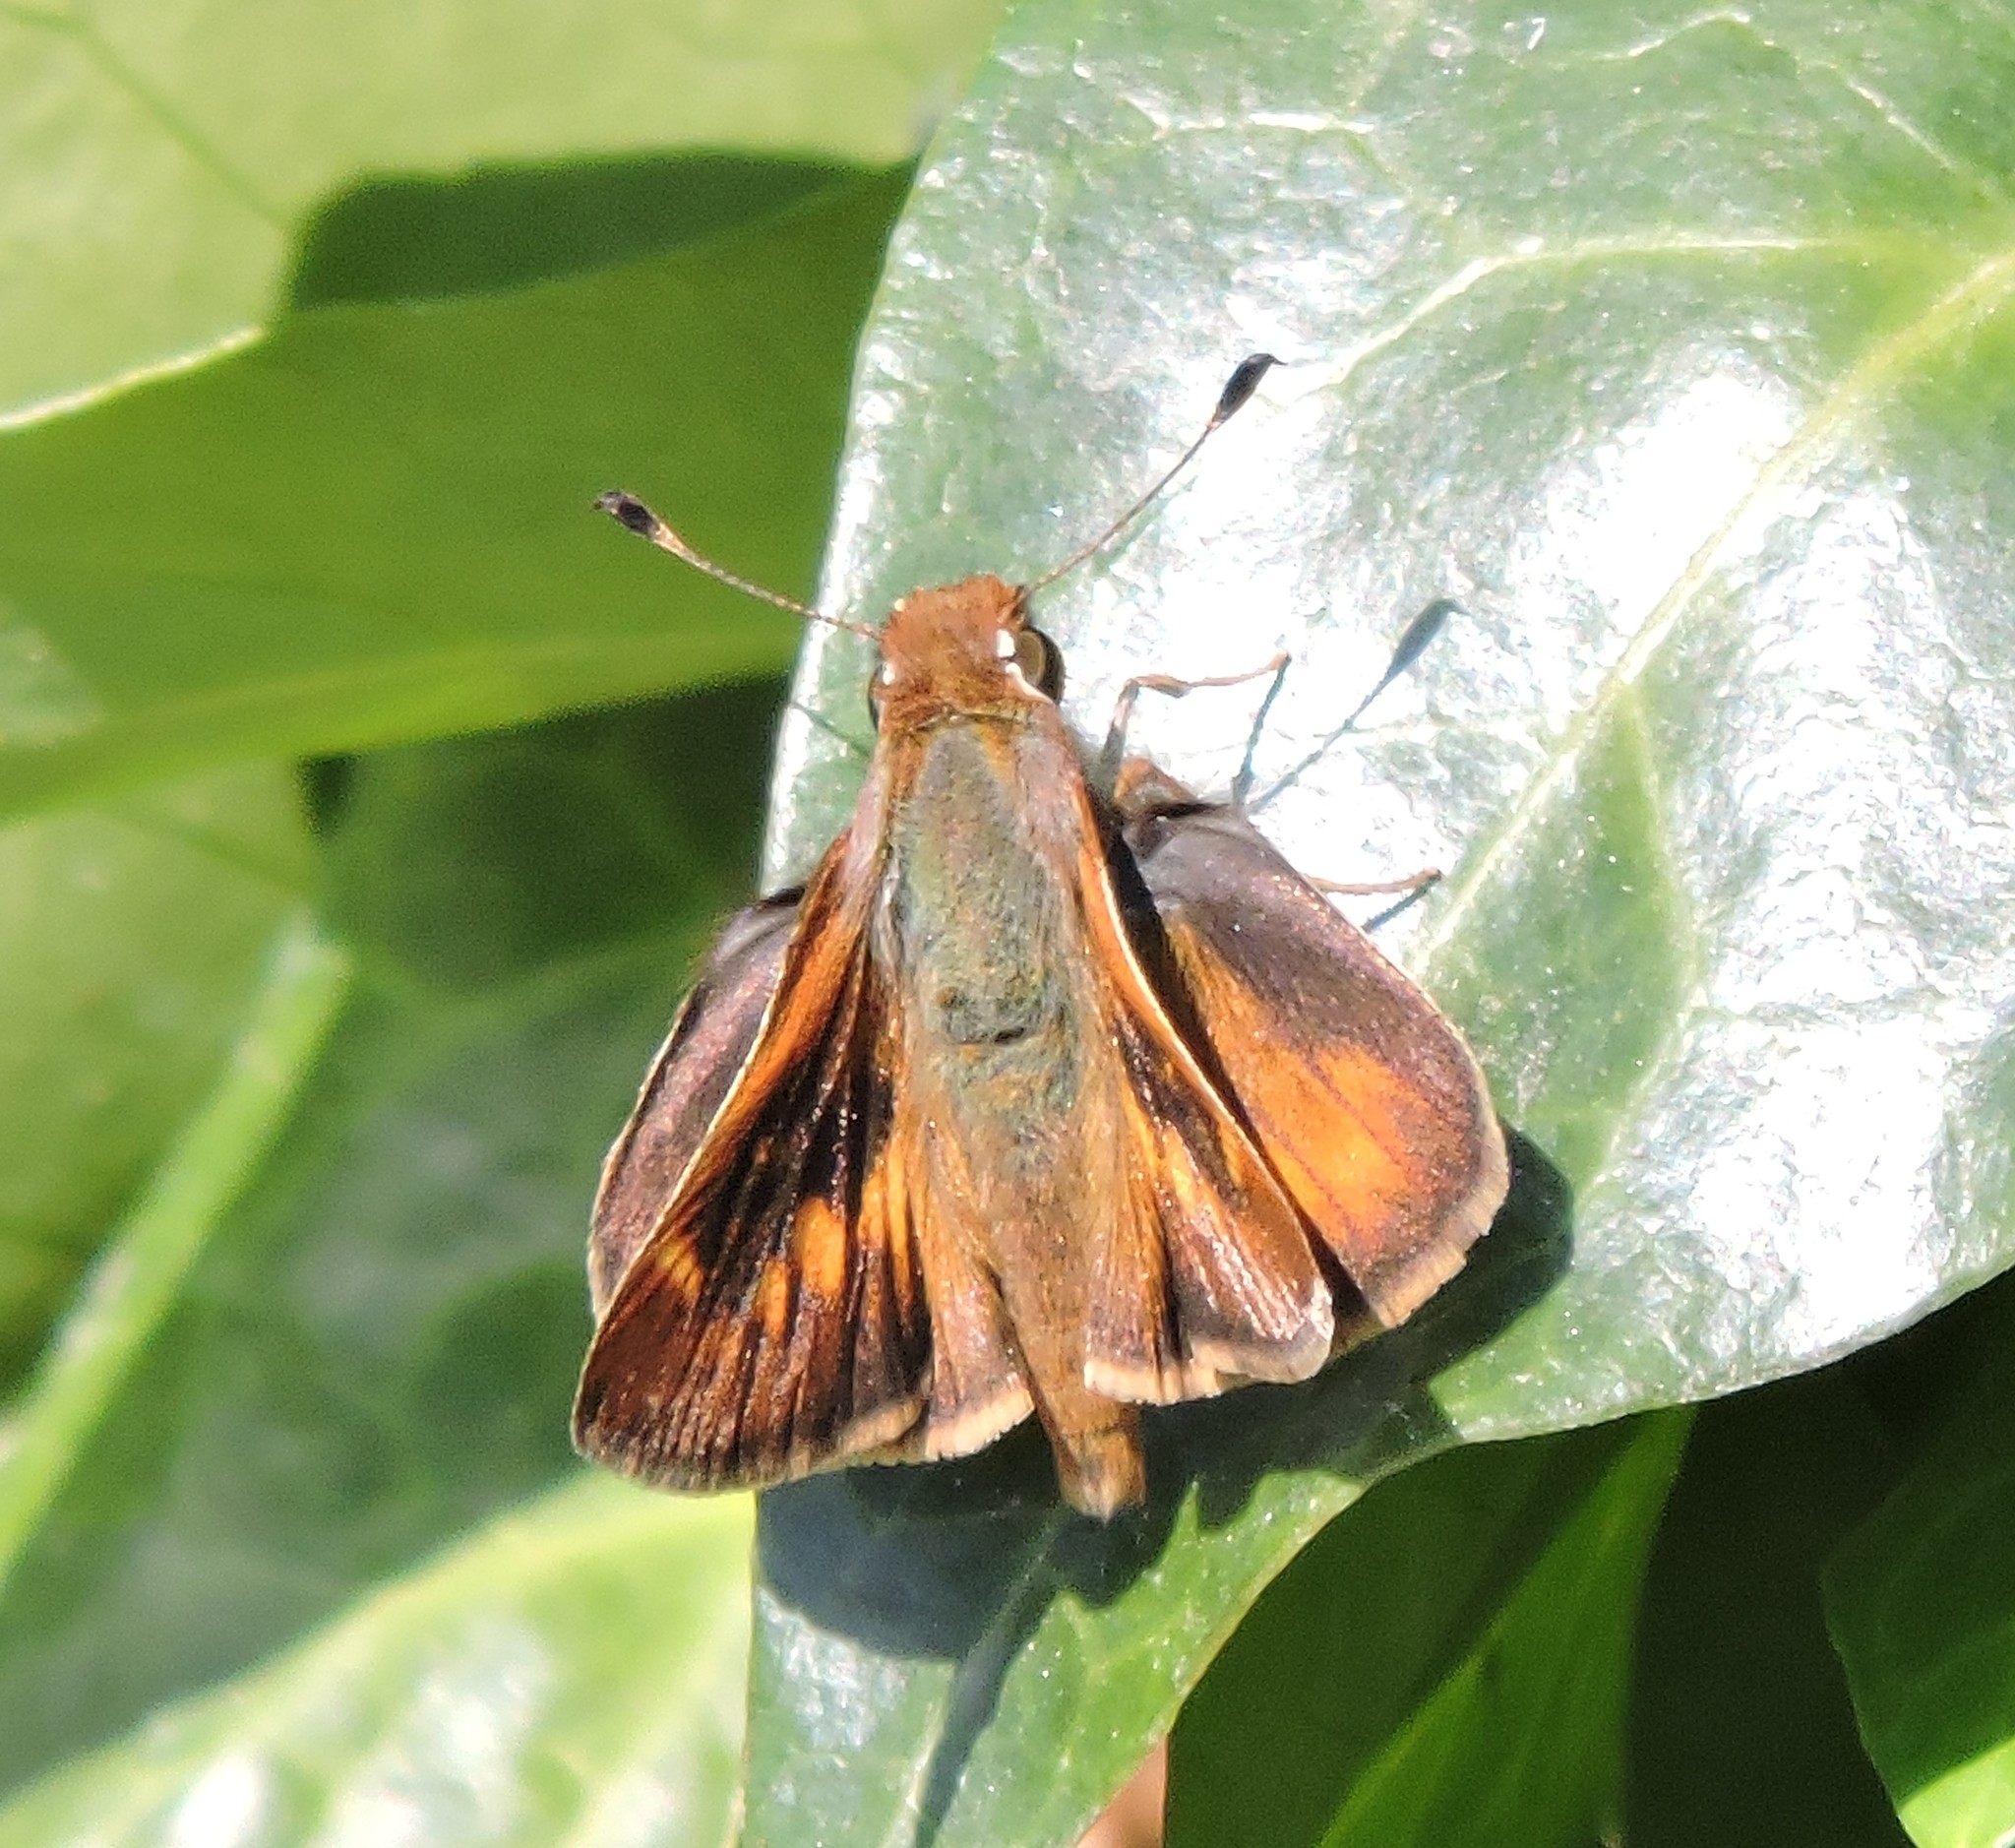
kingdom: Animalia
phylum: Arthropoda
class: Insecta
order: Lepidoptera
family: Hesperiidae
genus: Lon
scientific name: Lon melane
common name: Umber skipper
